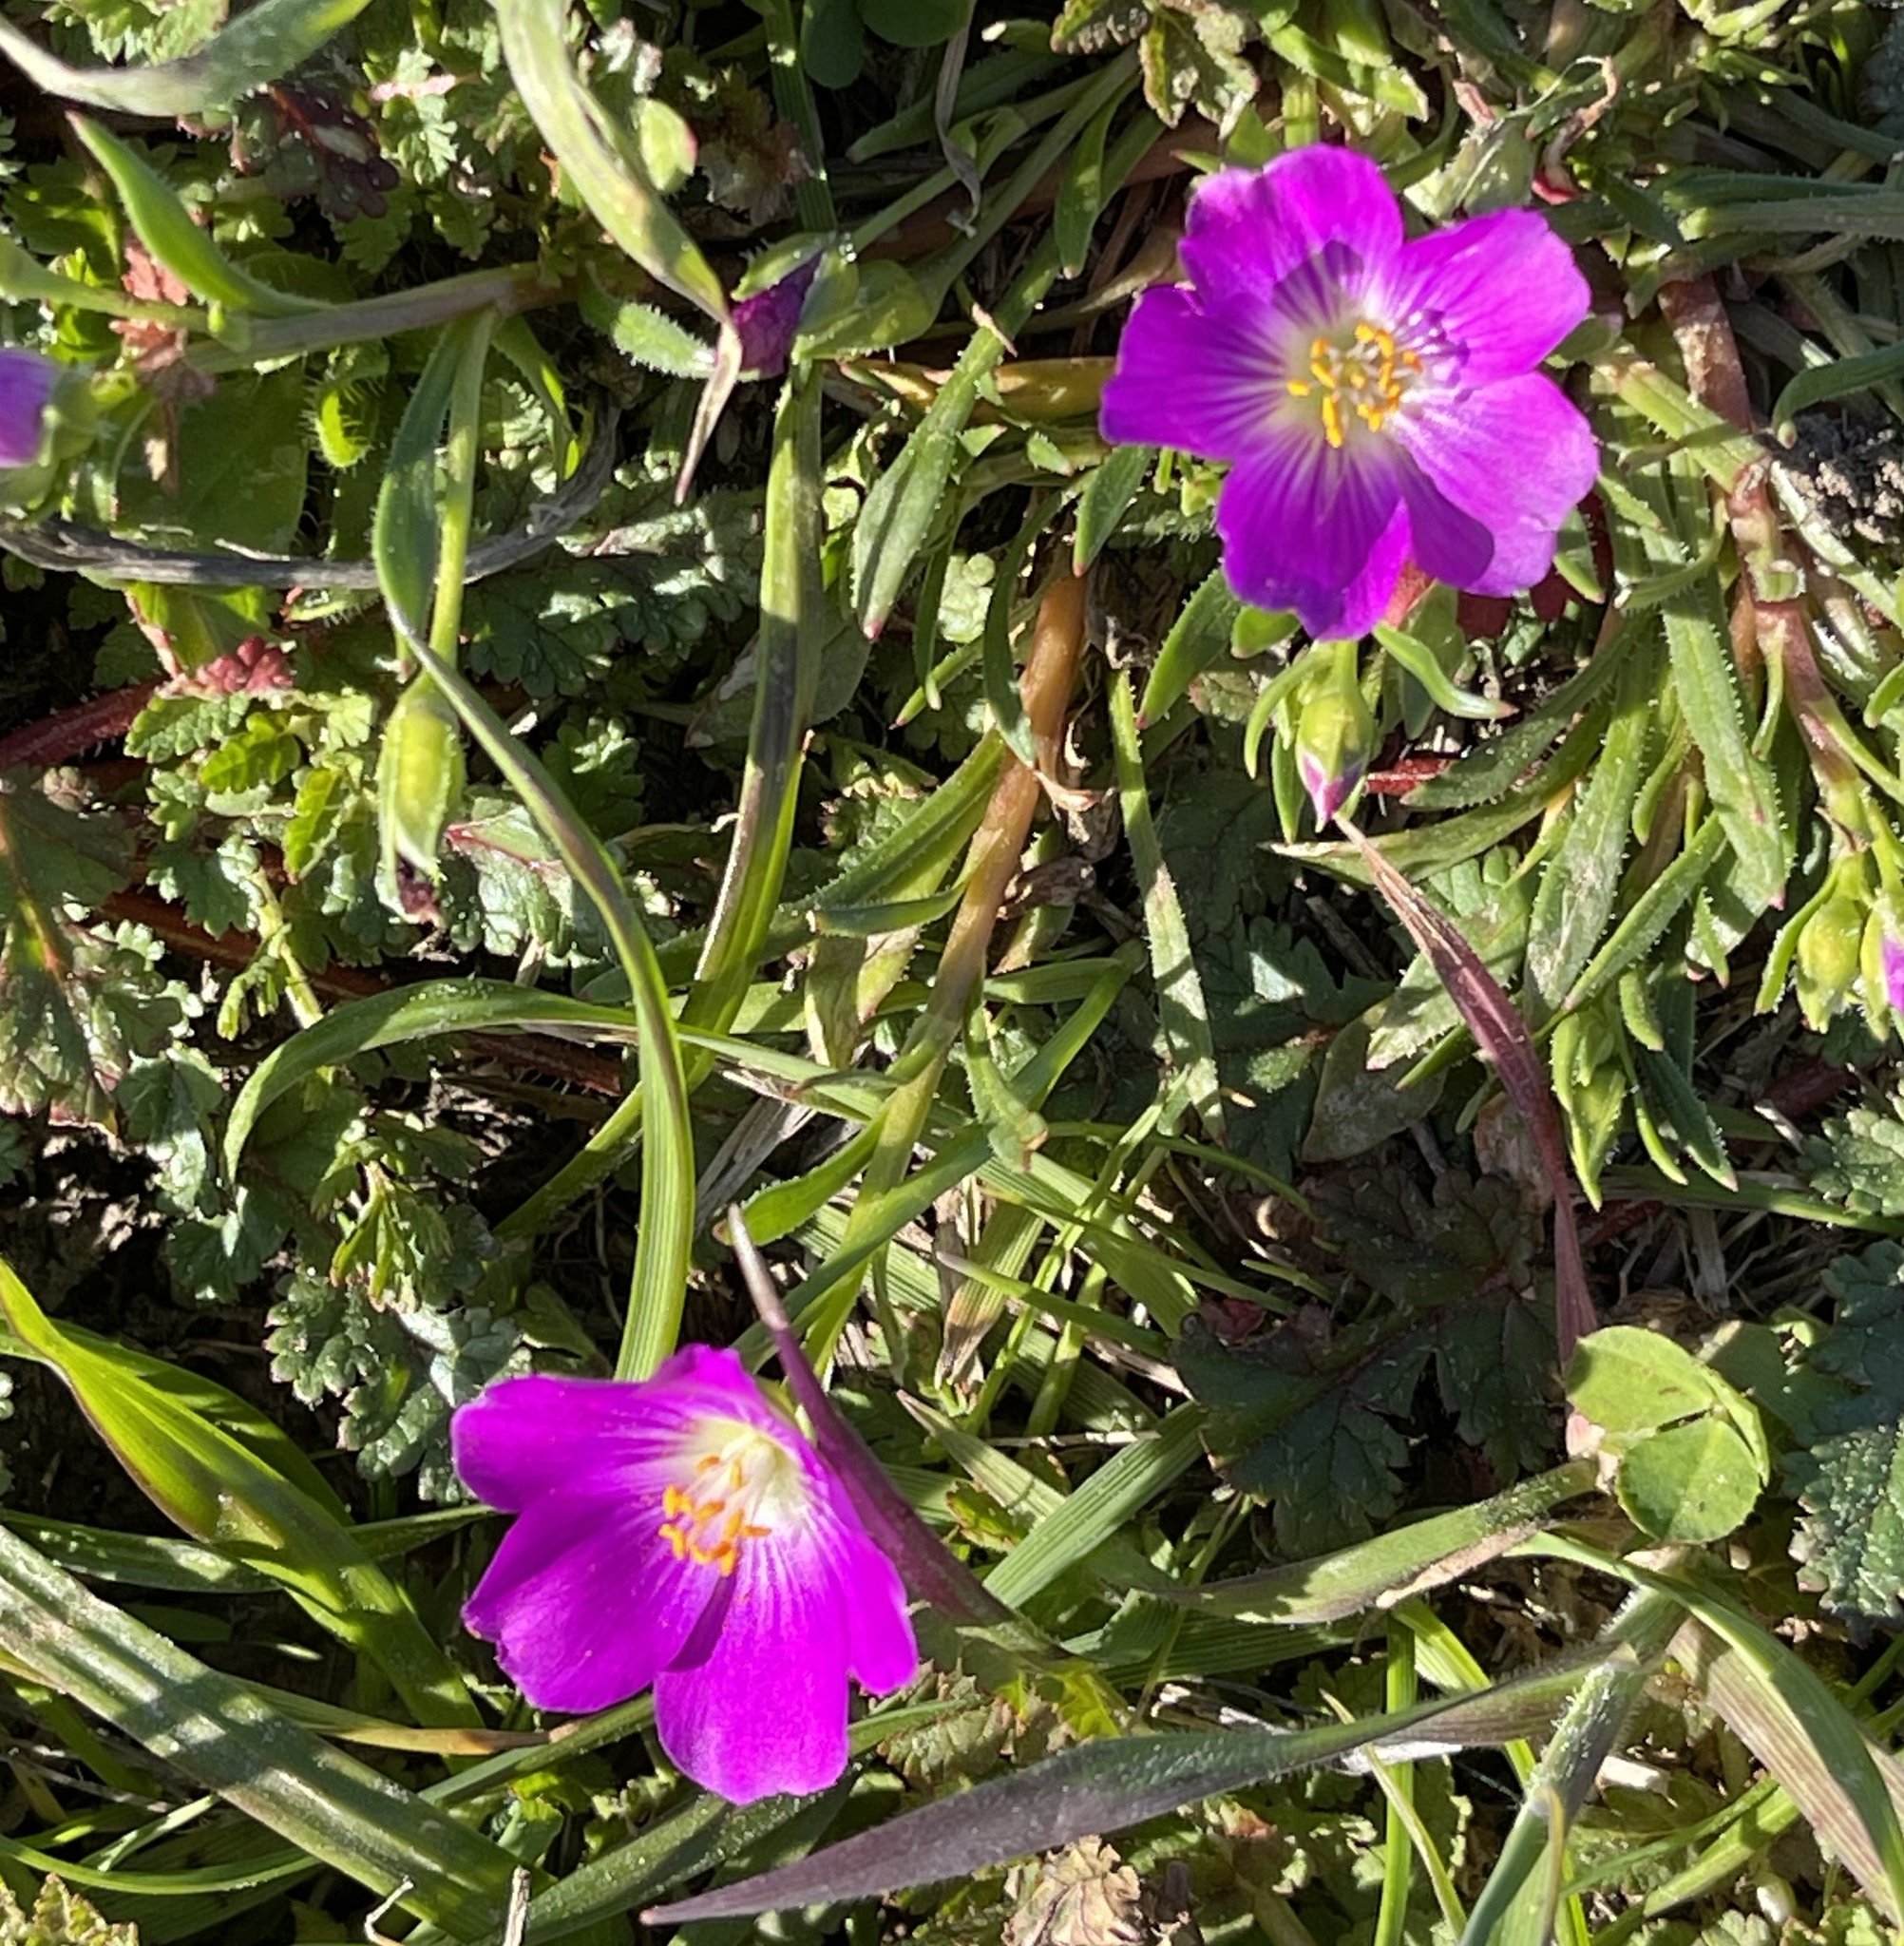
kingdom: Plantae
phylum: Tracheophyta
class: Magnoliopsida
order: Caryophyllales
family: Montiaceae
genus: Calandrinia
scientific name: Calandrinia menziesii
